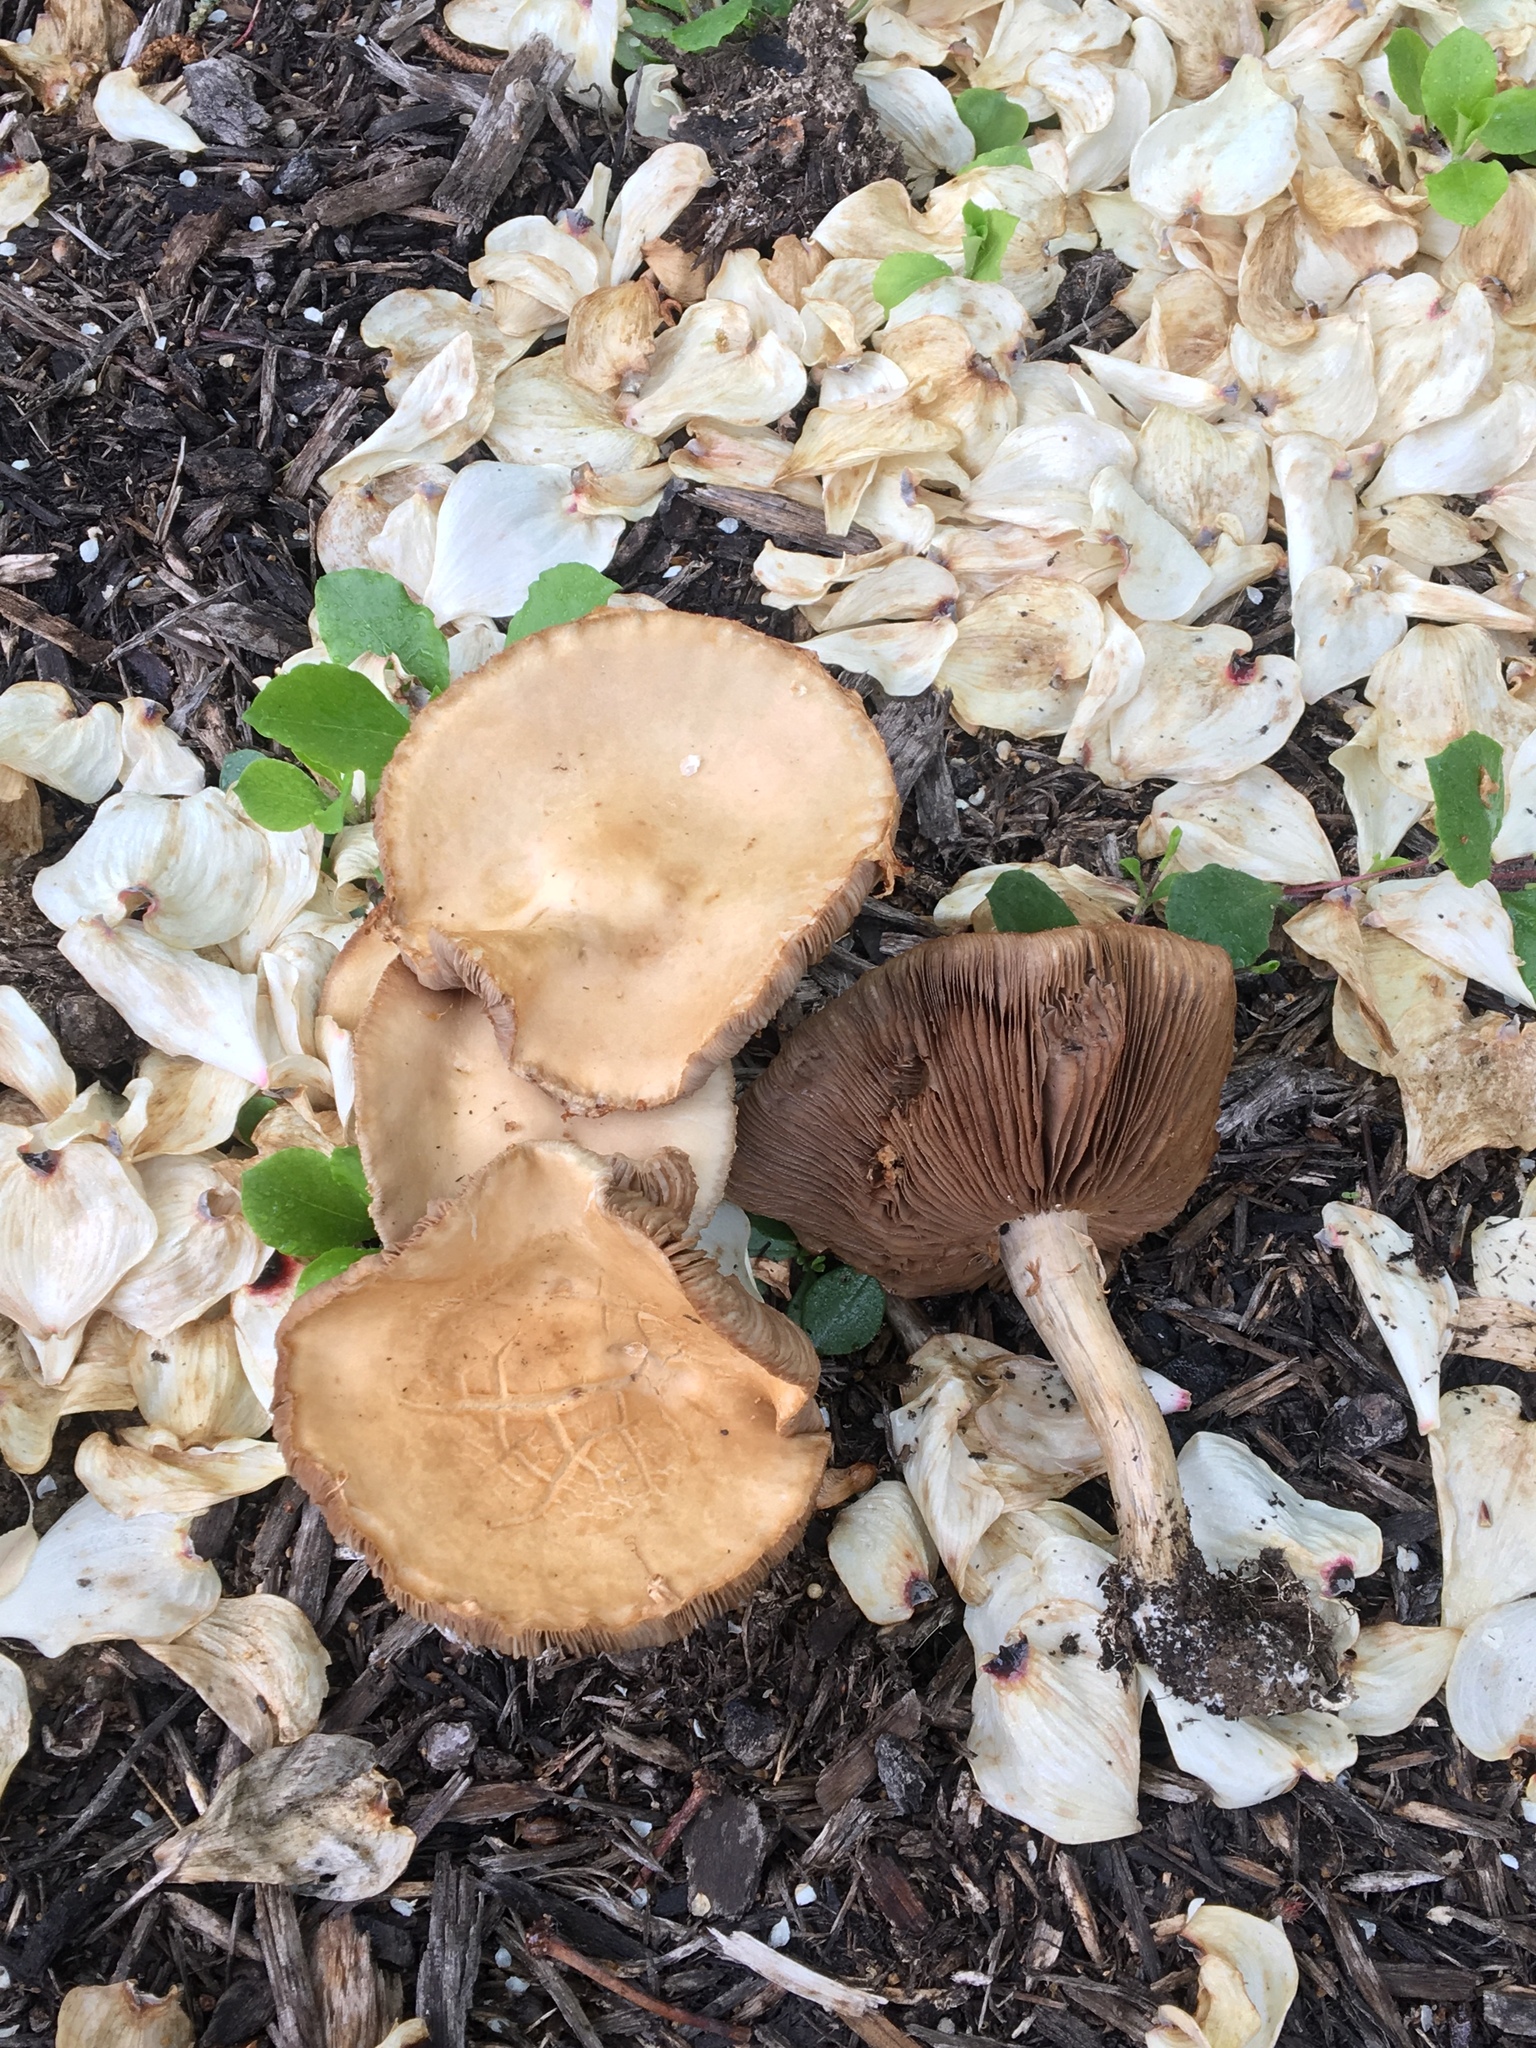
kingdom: Fungi
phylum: Basidiomycota
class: Agaricomycetes
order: Agaricales
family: Strophariaceae
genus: Agrocybe
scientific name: Agrocybe praecox
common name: Spring fieldcap
